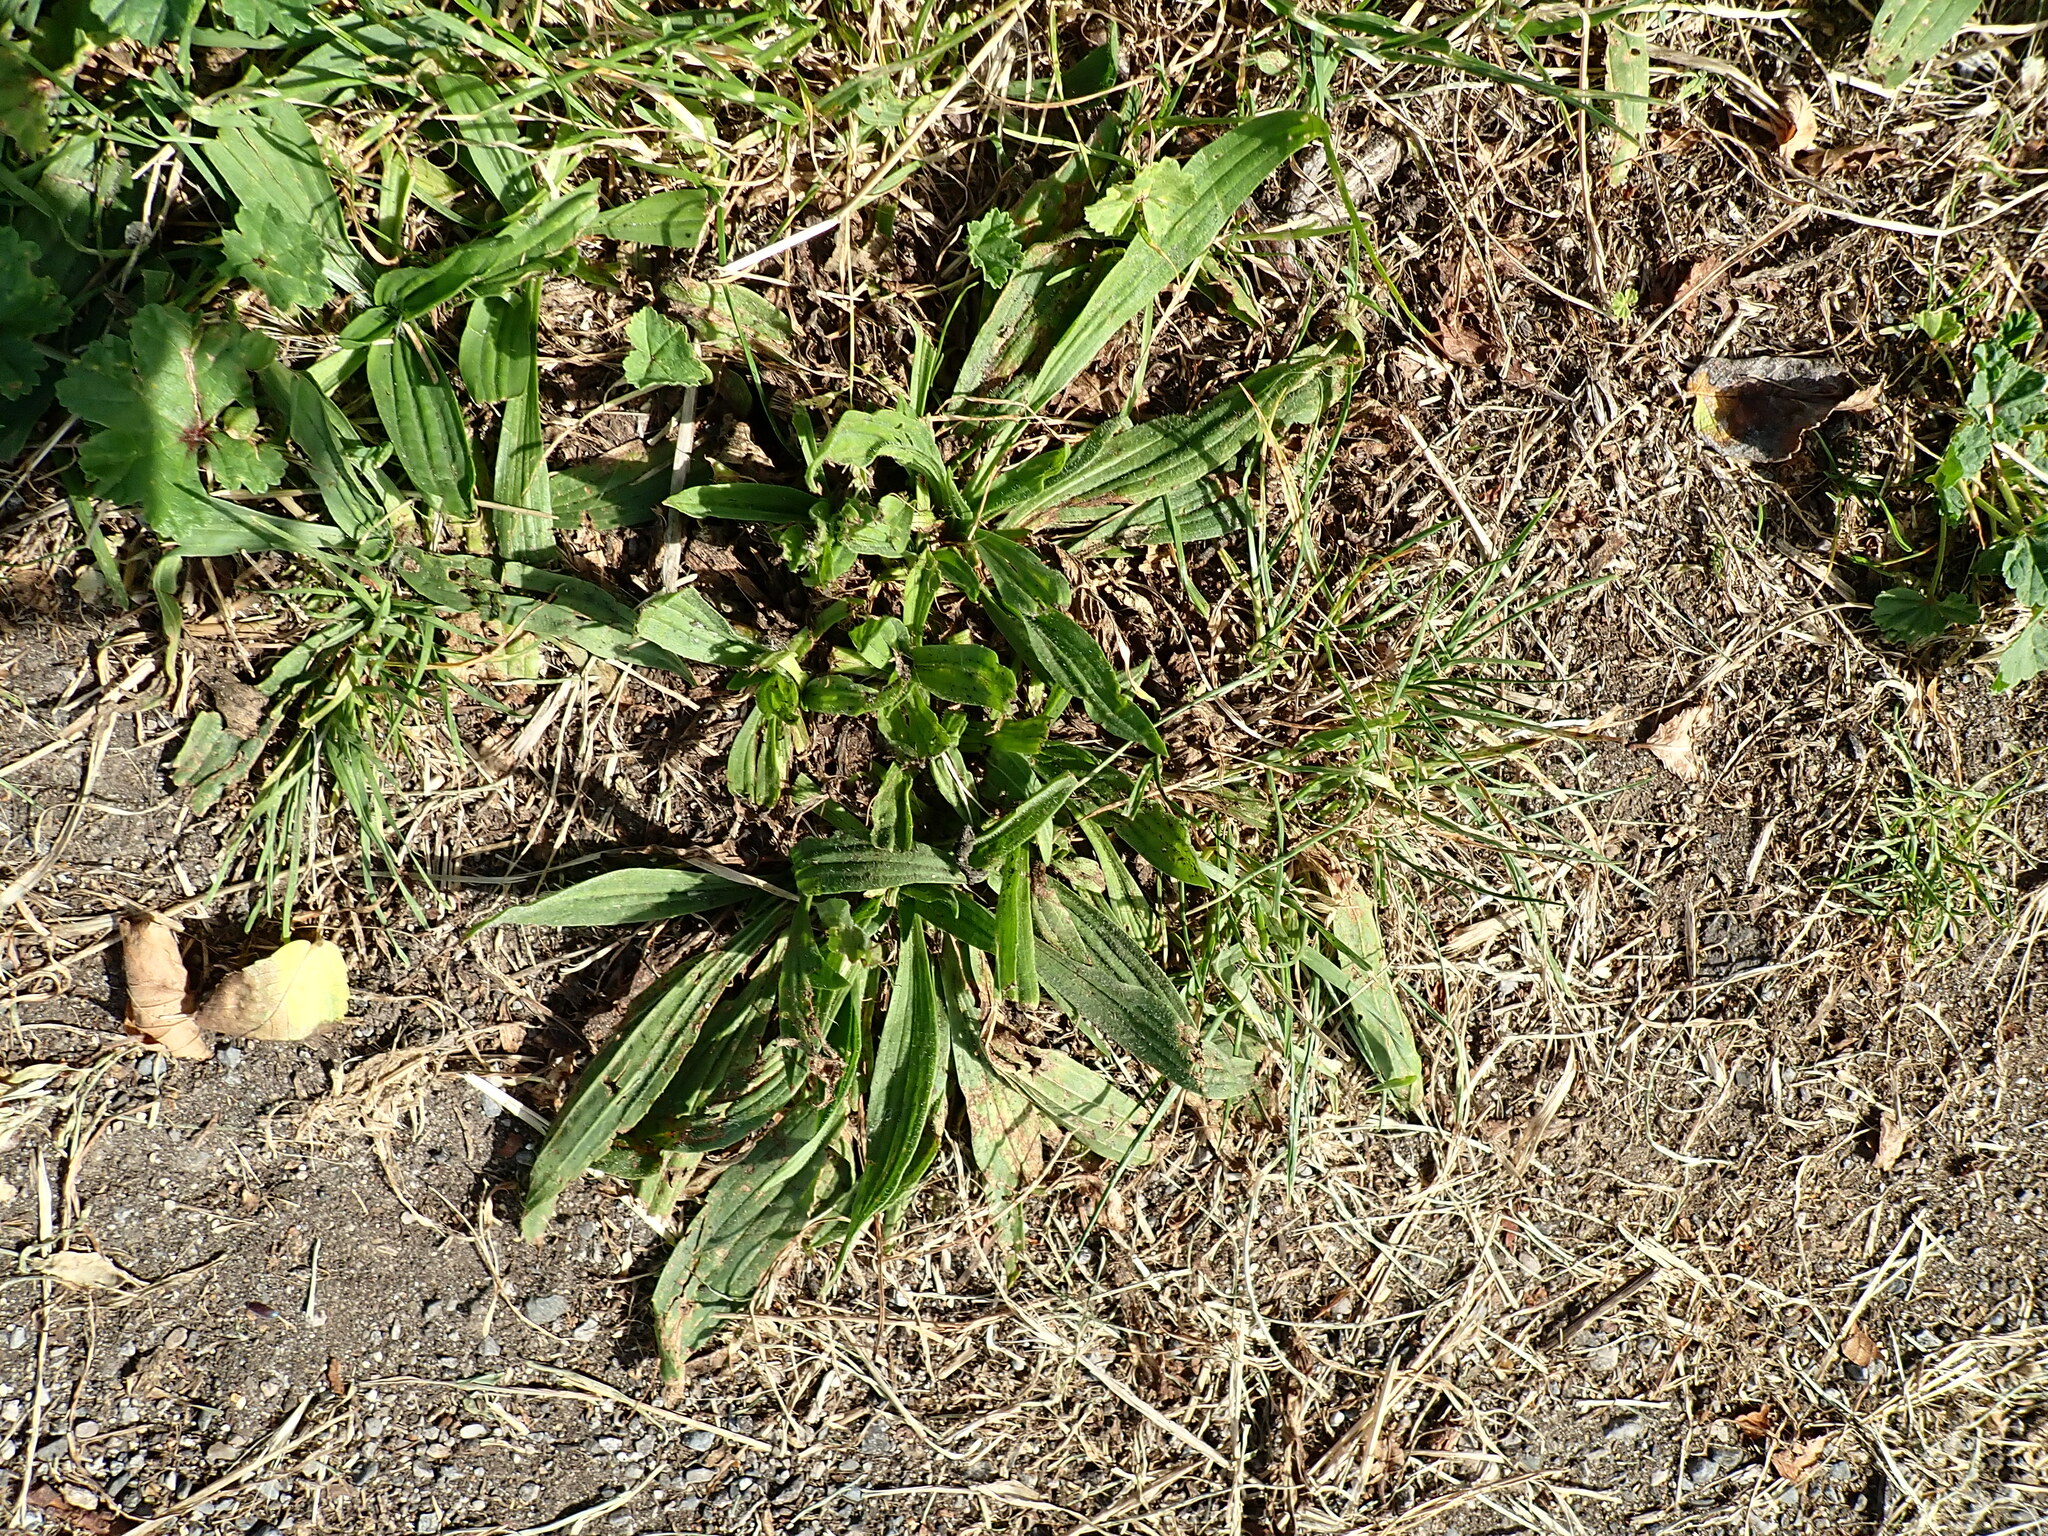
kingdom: Plantae
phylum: Tracheophyta
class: Magnoliopsida
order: Lamiales
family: Plantaginaceae
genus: Plantago
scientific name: Plantago lanceolata
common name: Ribwort plantain
